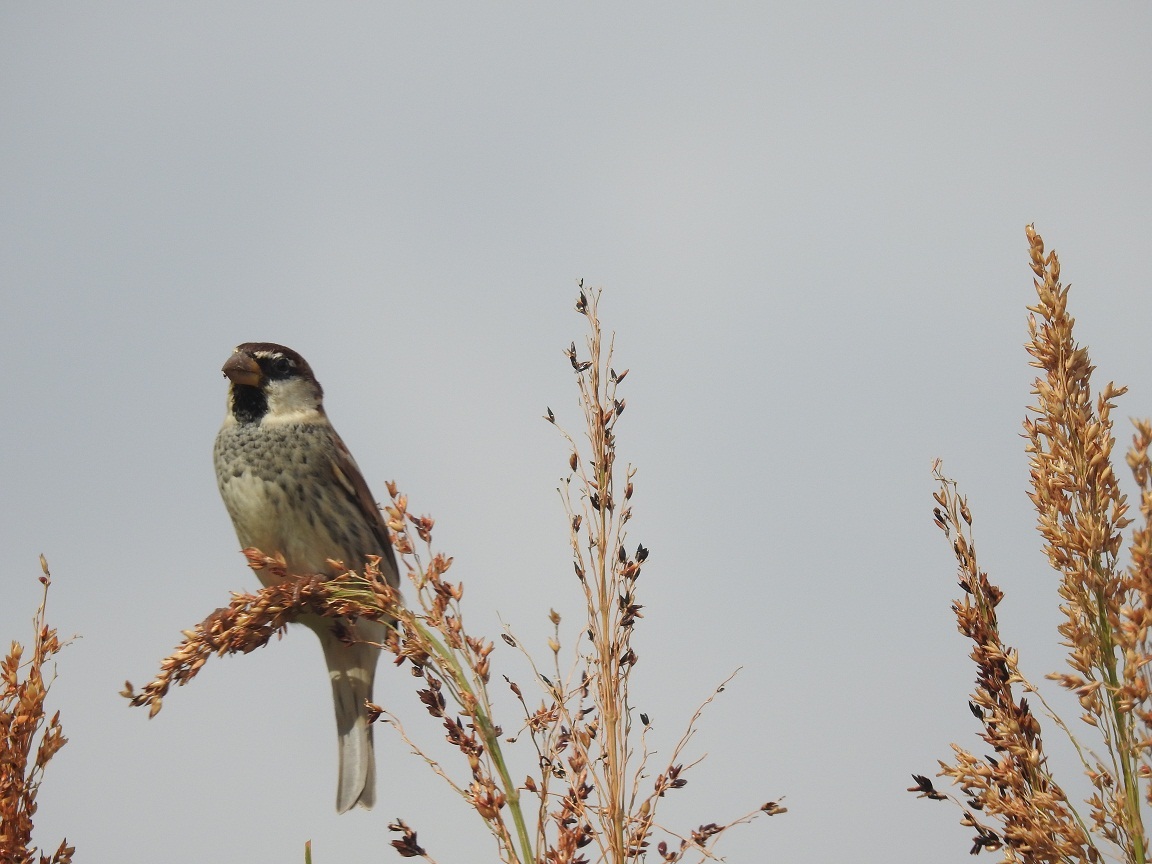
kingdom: Animalia
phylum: Chordata
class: Aves
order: Passeriformes
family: Passeridae
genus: Passer
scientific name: Passer hispaniolensis
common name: Spanish sparrow
